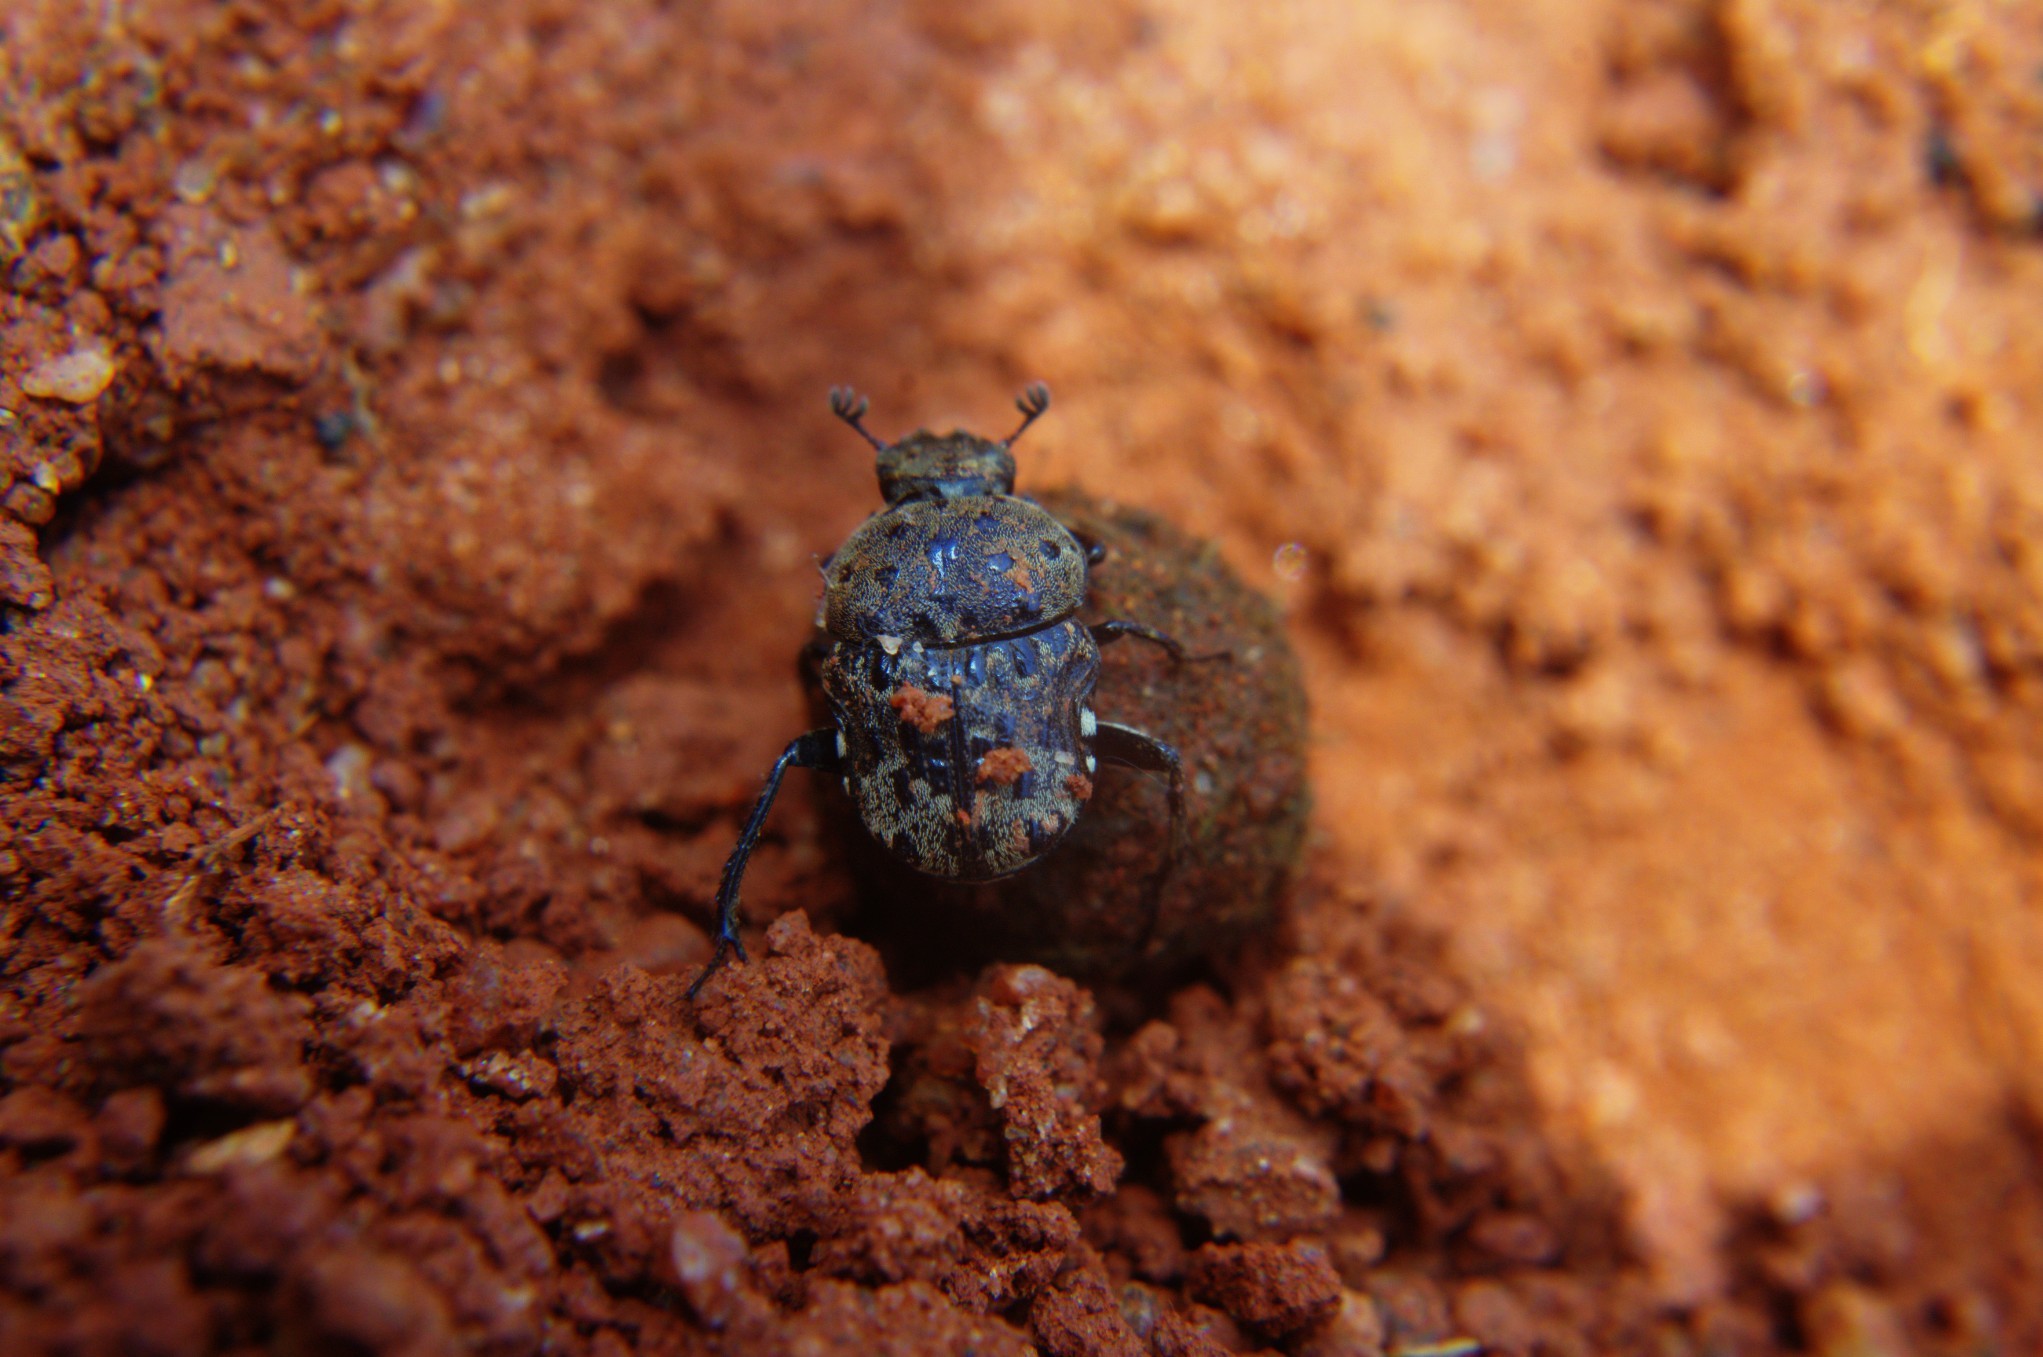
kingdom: Animalia
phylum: Arthropoda
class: Insecta
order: Coleoptera
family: Scarabaeidae
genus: Gymnopleurus
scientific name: Gymnopleurus gemmatus
